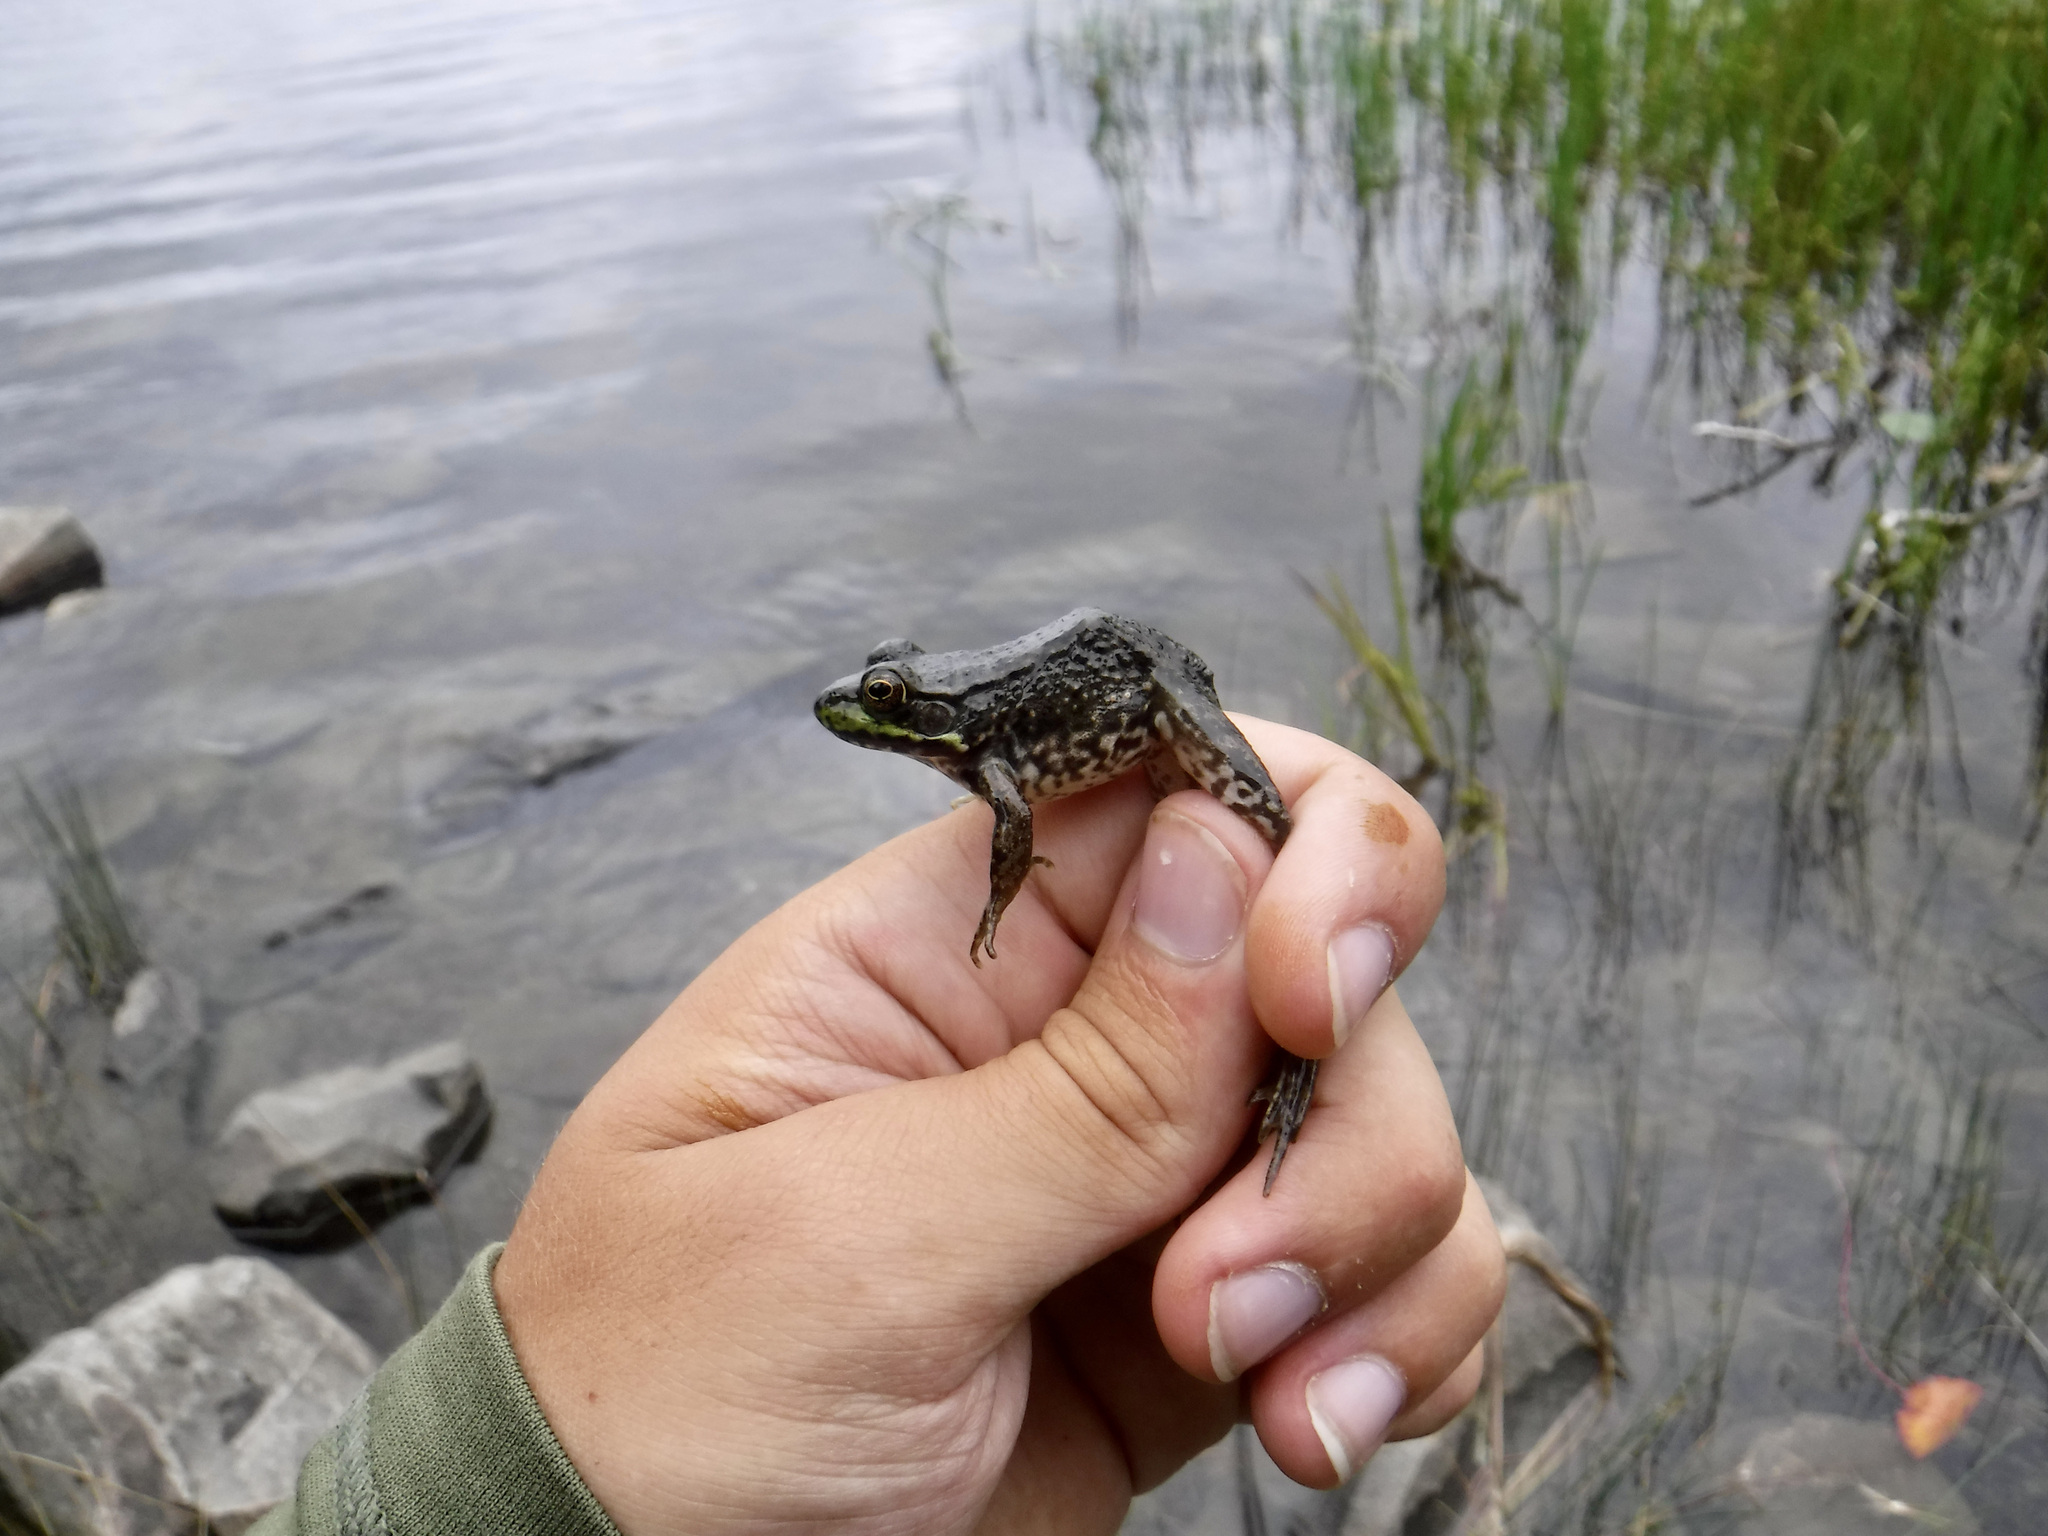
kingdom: Animalia
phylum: Chordata
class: Amphibia
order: Anura
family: Ranidae
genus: Lithobates
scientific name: Lithobates clamitans
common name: Green frog
